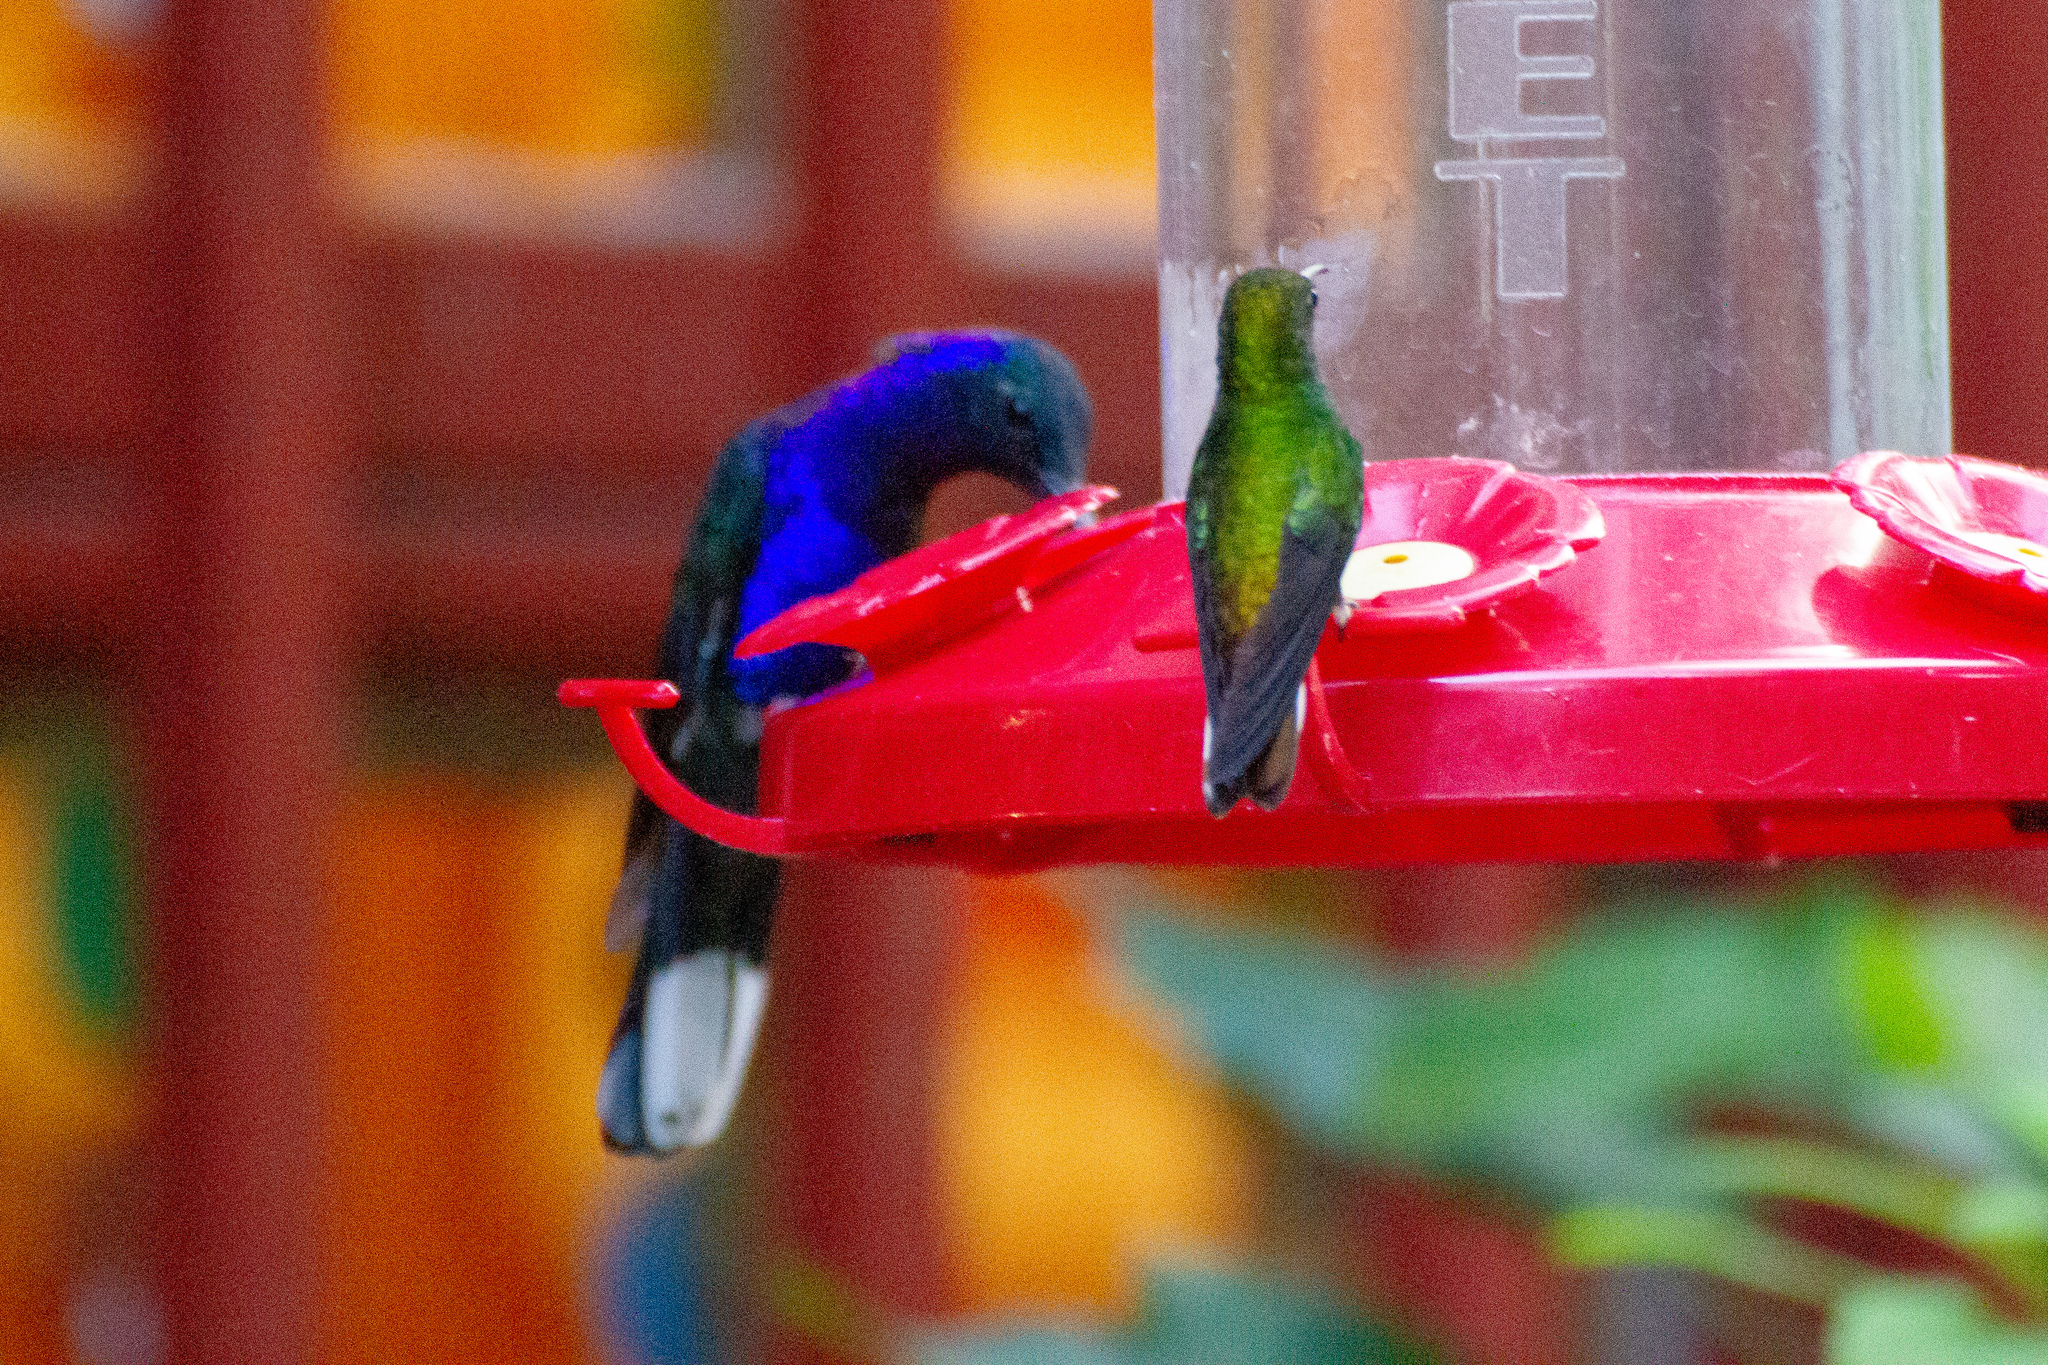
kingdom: Animalia
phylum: Chordata
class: Aves
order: Apodiformes
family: Trochilidae
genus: Campylopterus
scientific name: Campylopterus hemileucurus
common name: Violet sabrewing
